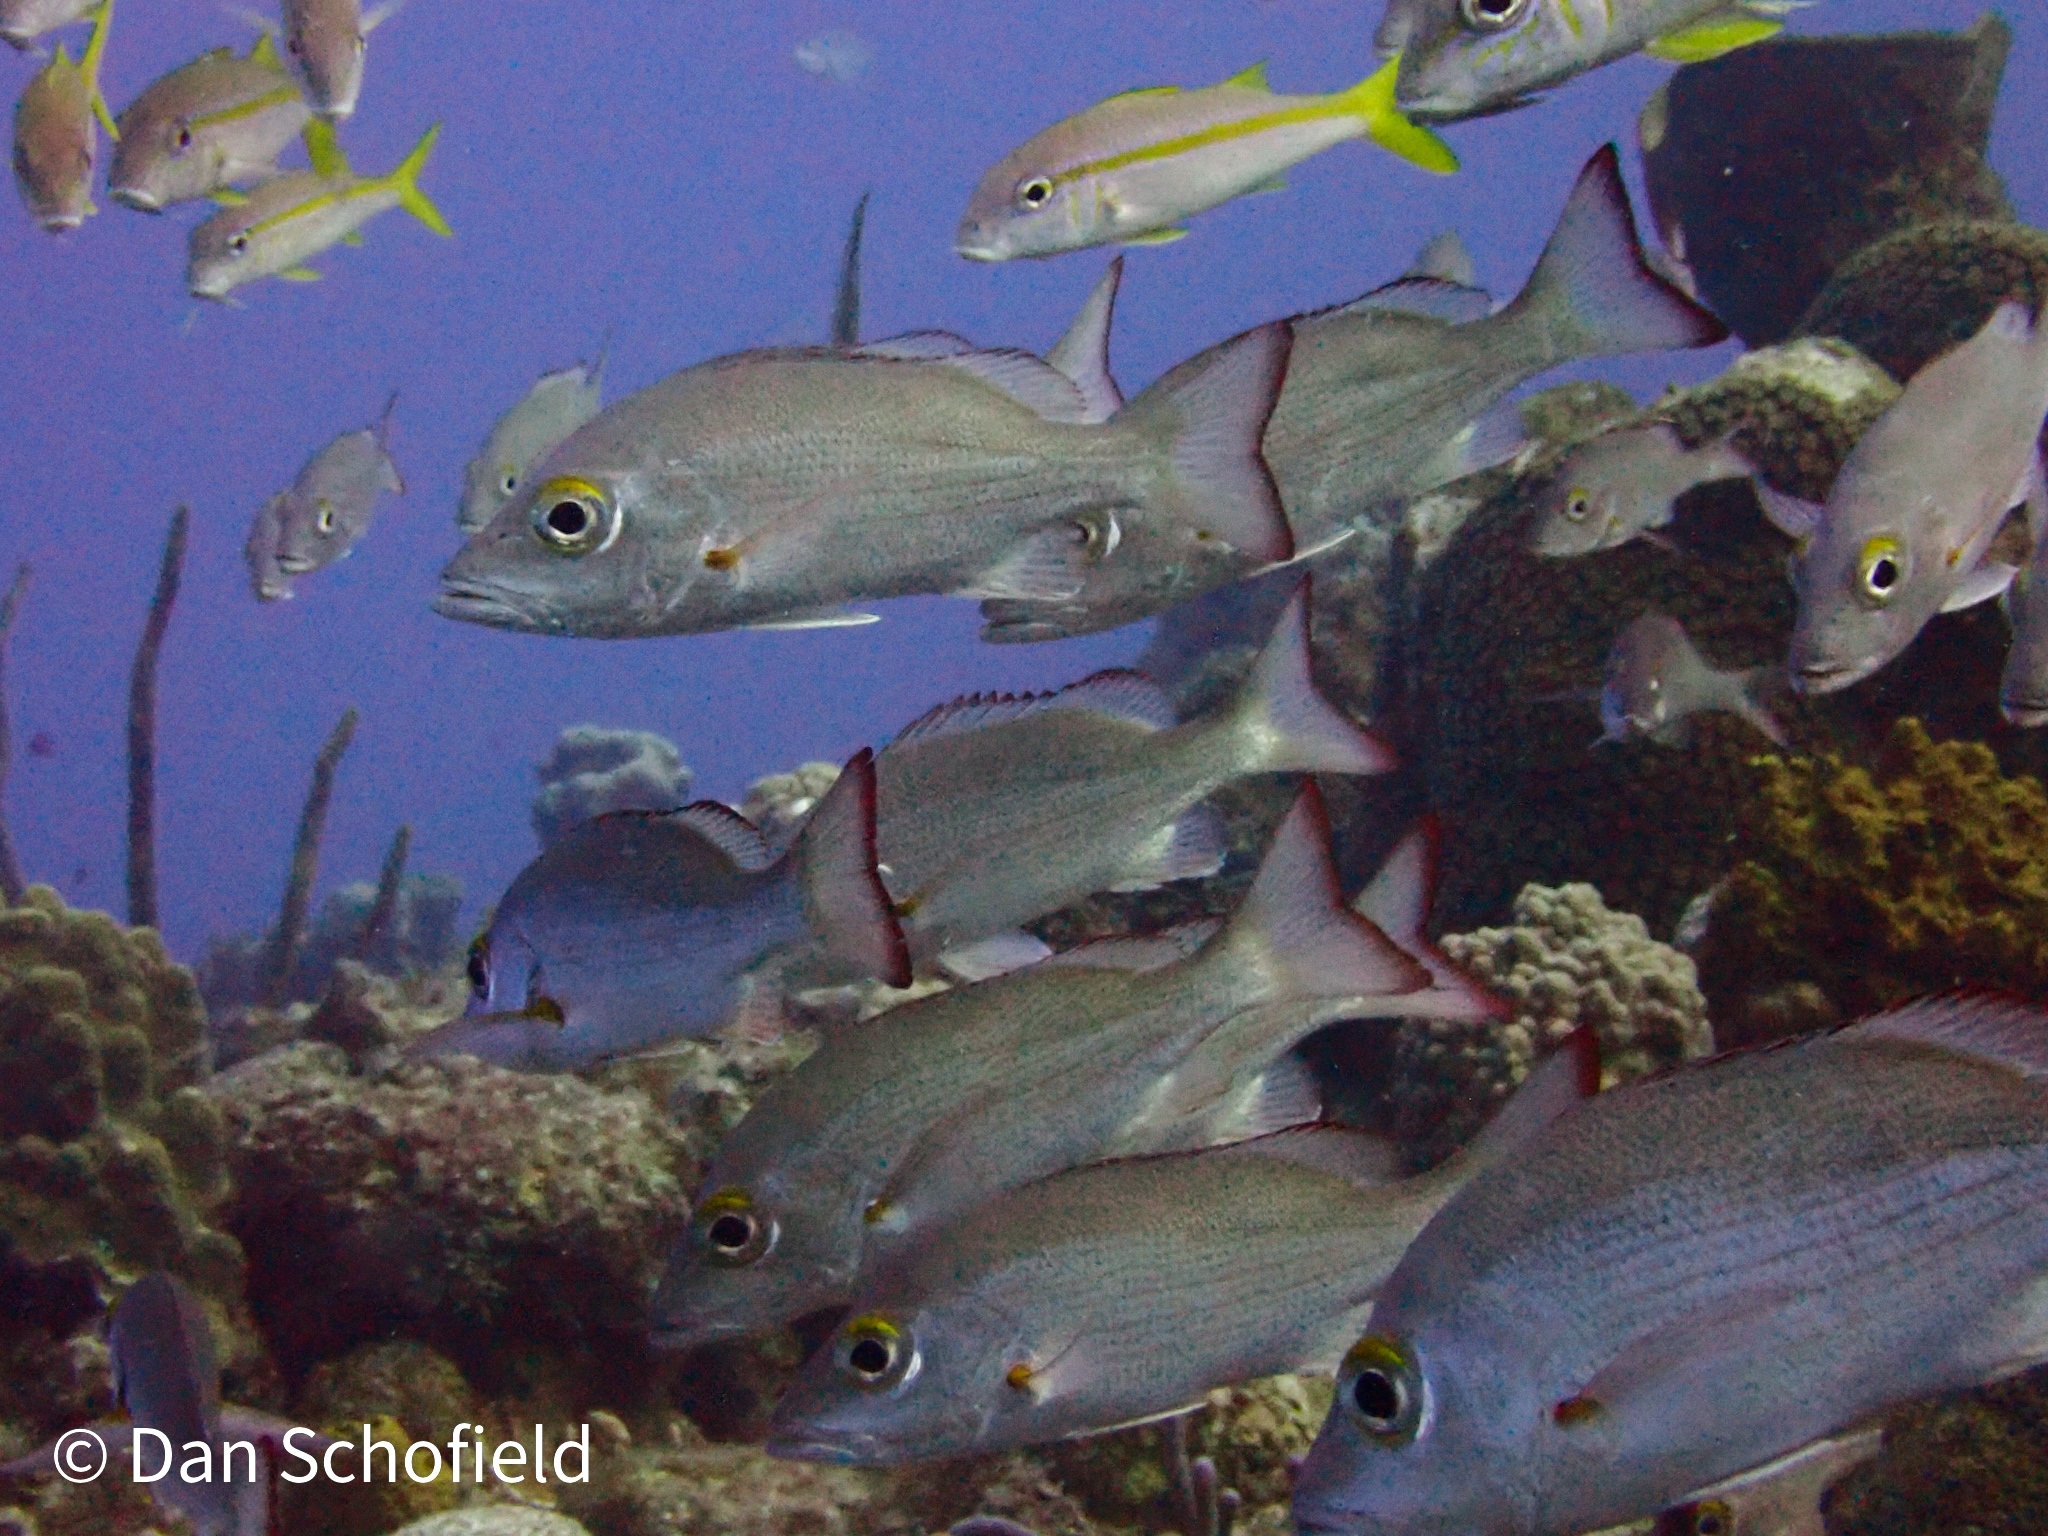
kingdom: Animalia
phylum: Chordata
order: Perciformes
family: Lutjanidae
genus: Lutjanus
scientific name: Lutjanus mahogoni
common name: Spot snapper
